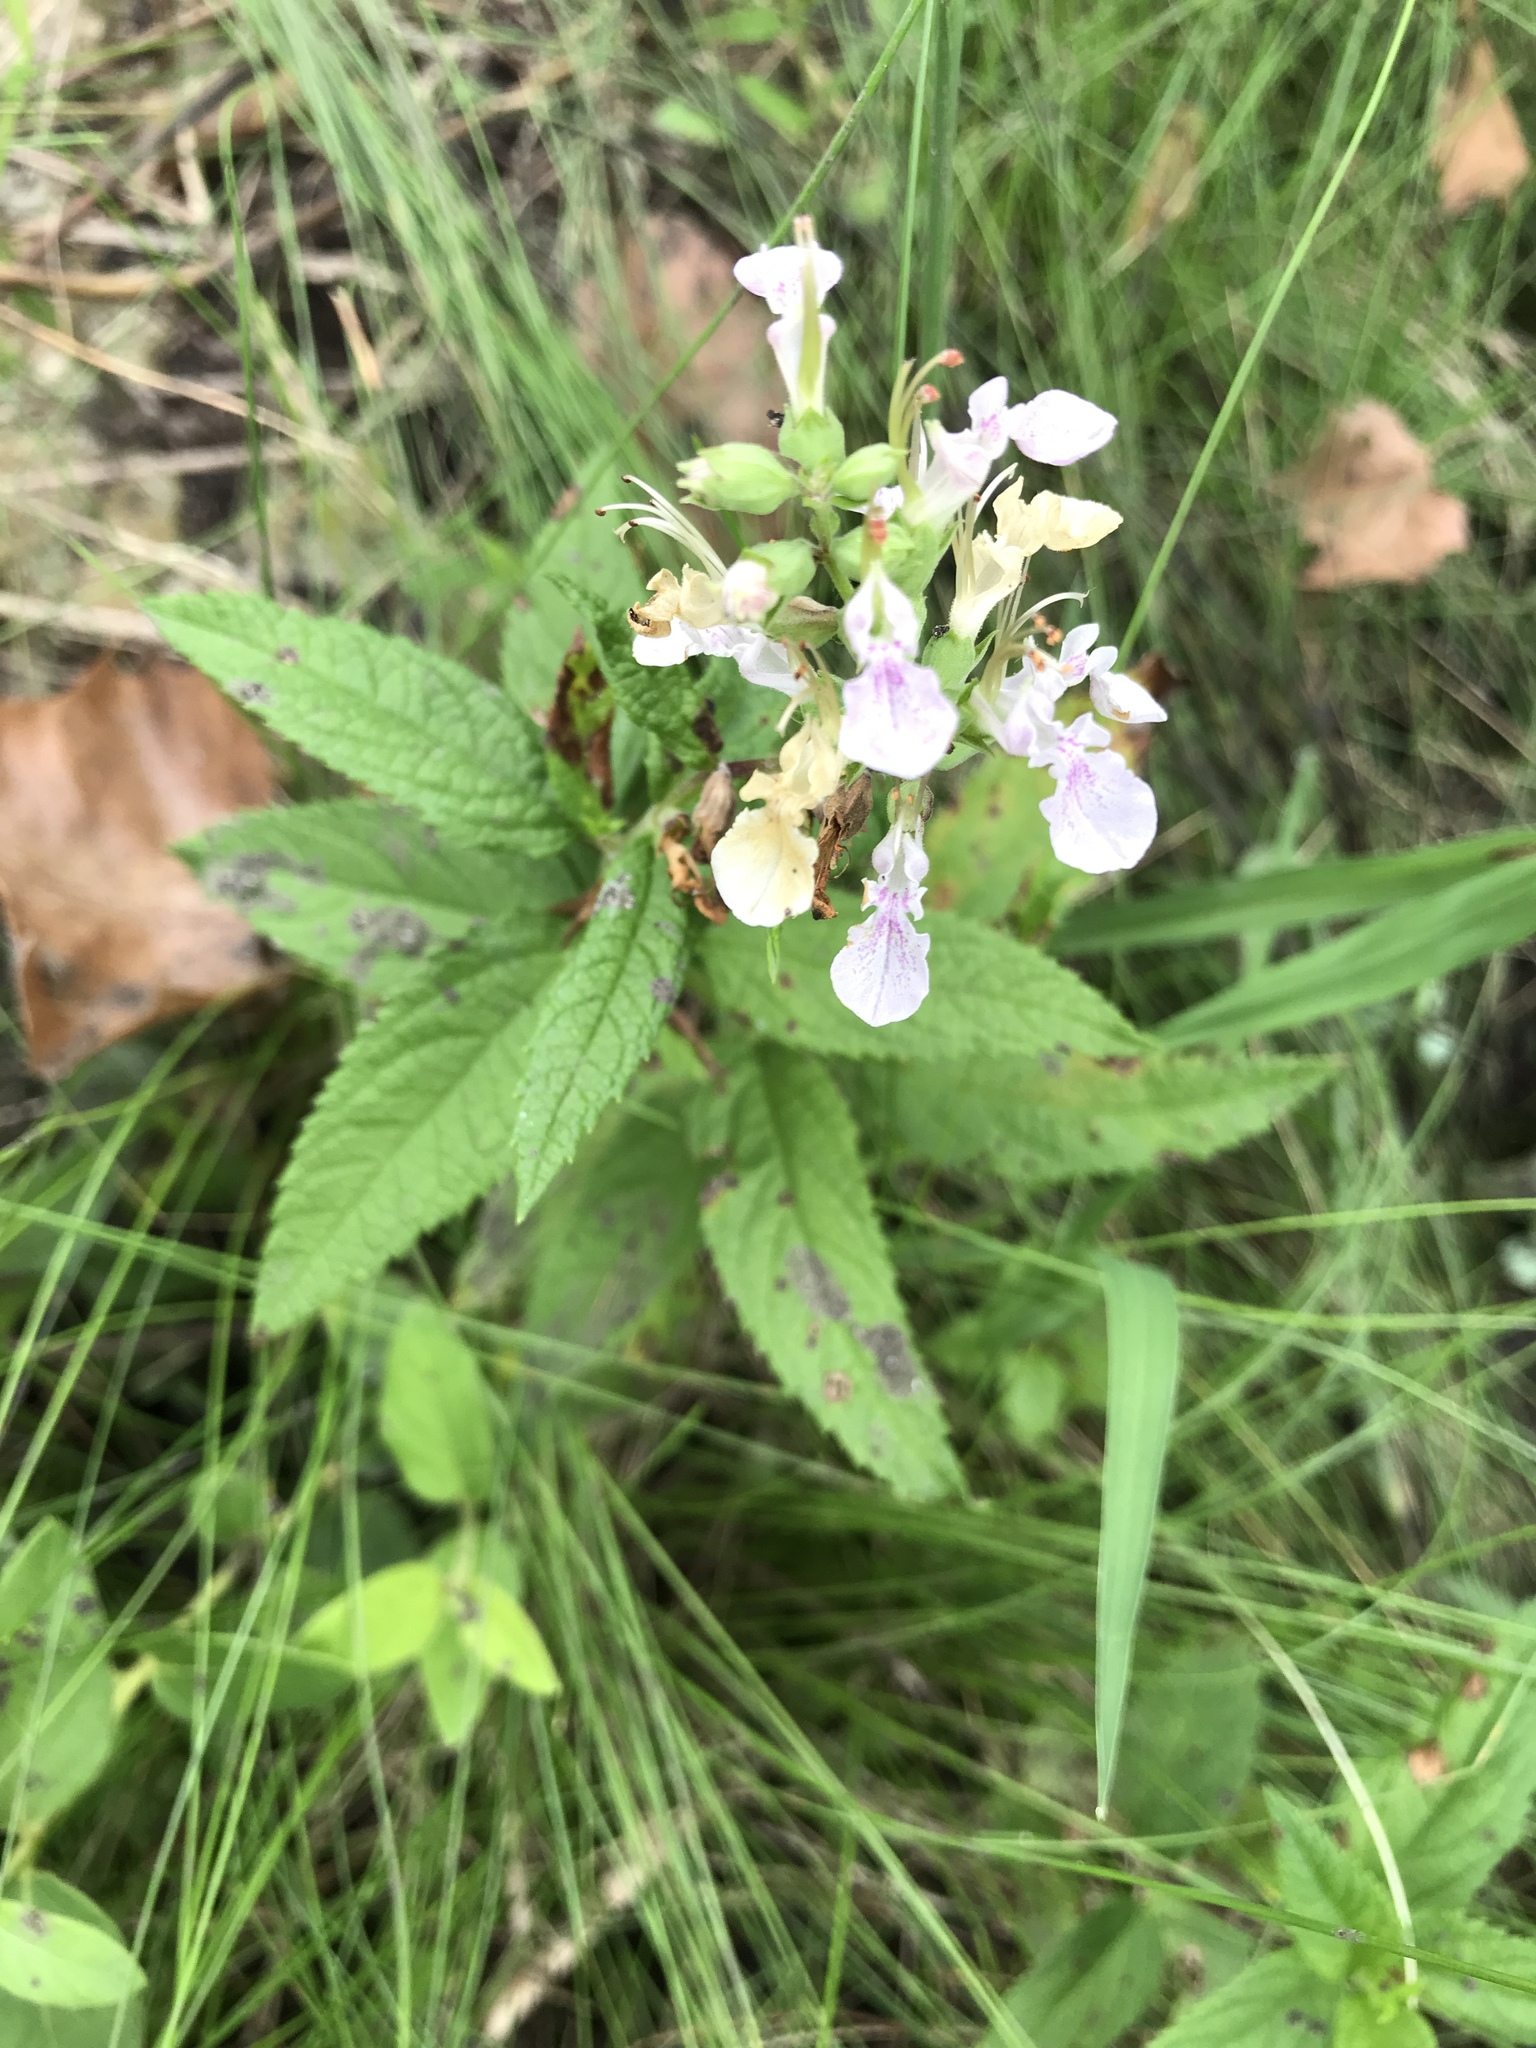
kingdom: Plantae
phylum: Tracheophyta
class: Magnoliopsida
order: Lamiales
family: Lamiaceae
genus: Teucrium
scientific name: Teucrium canadense
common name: American germander
